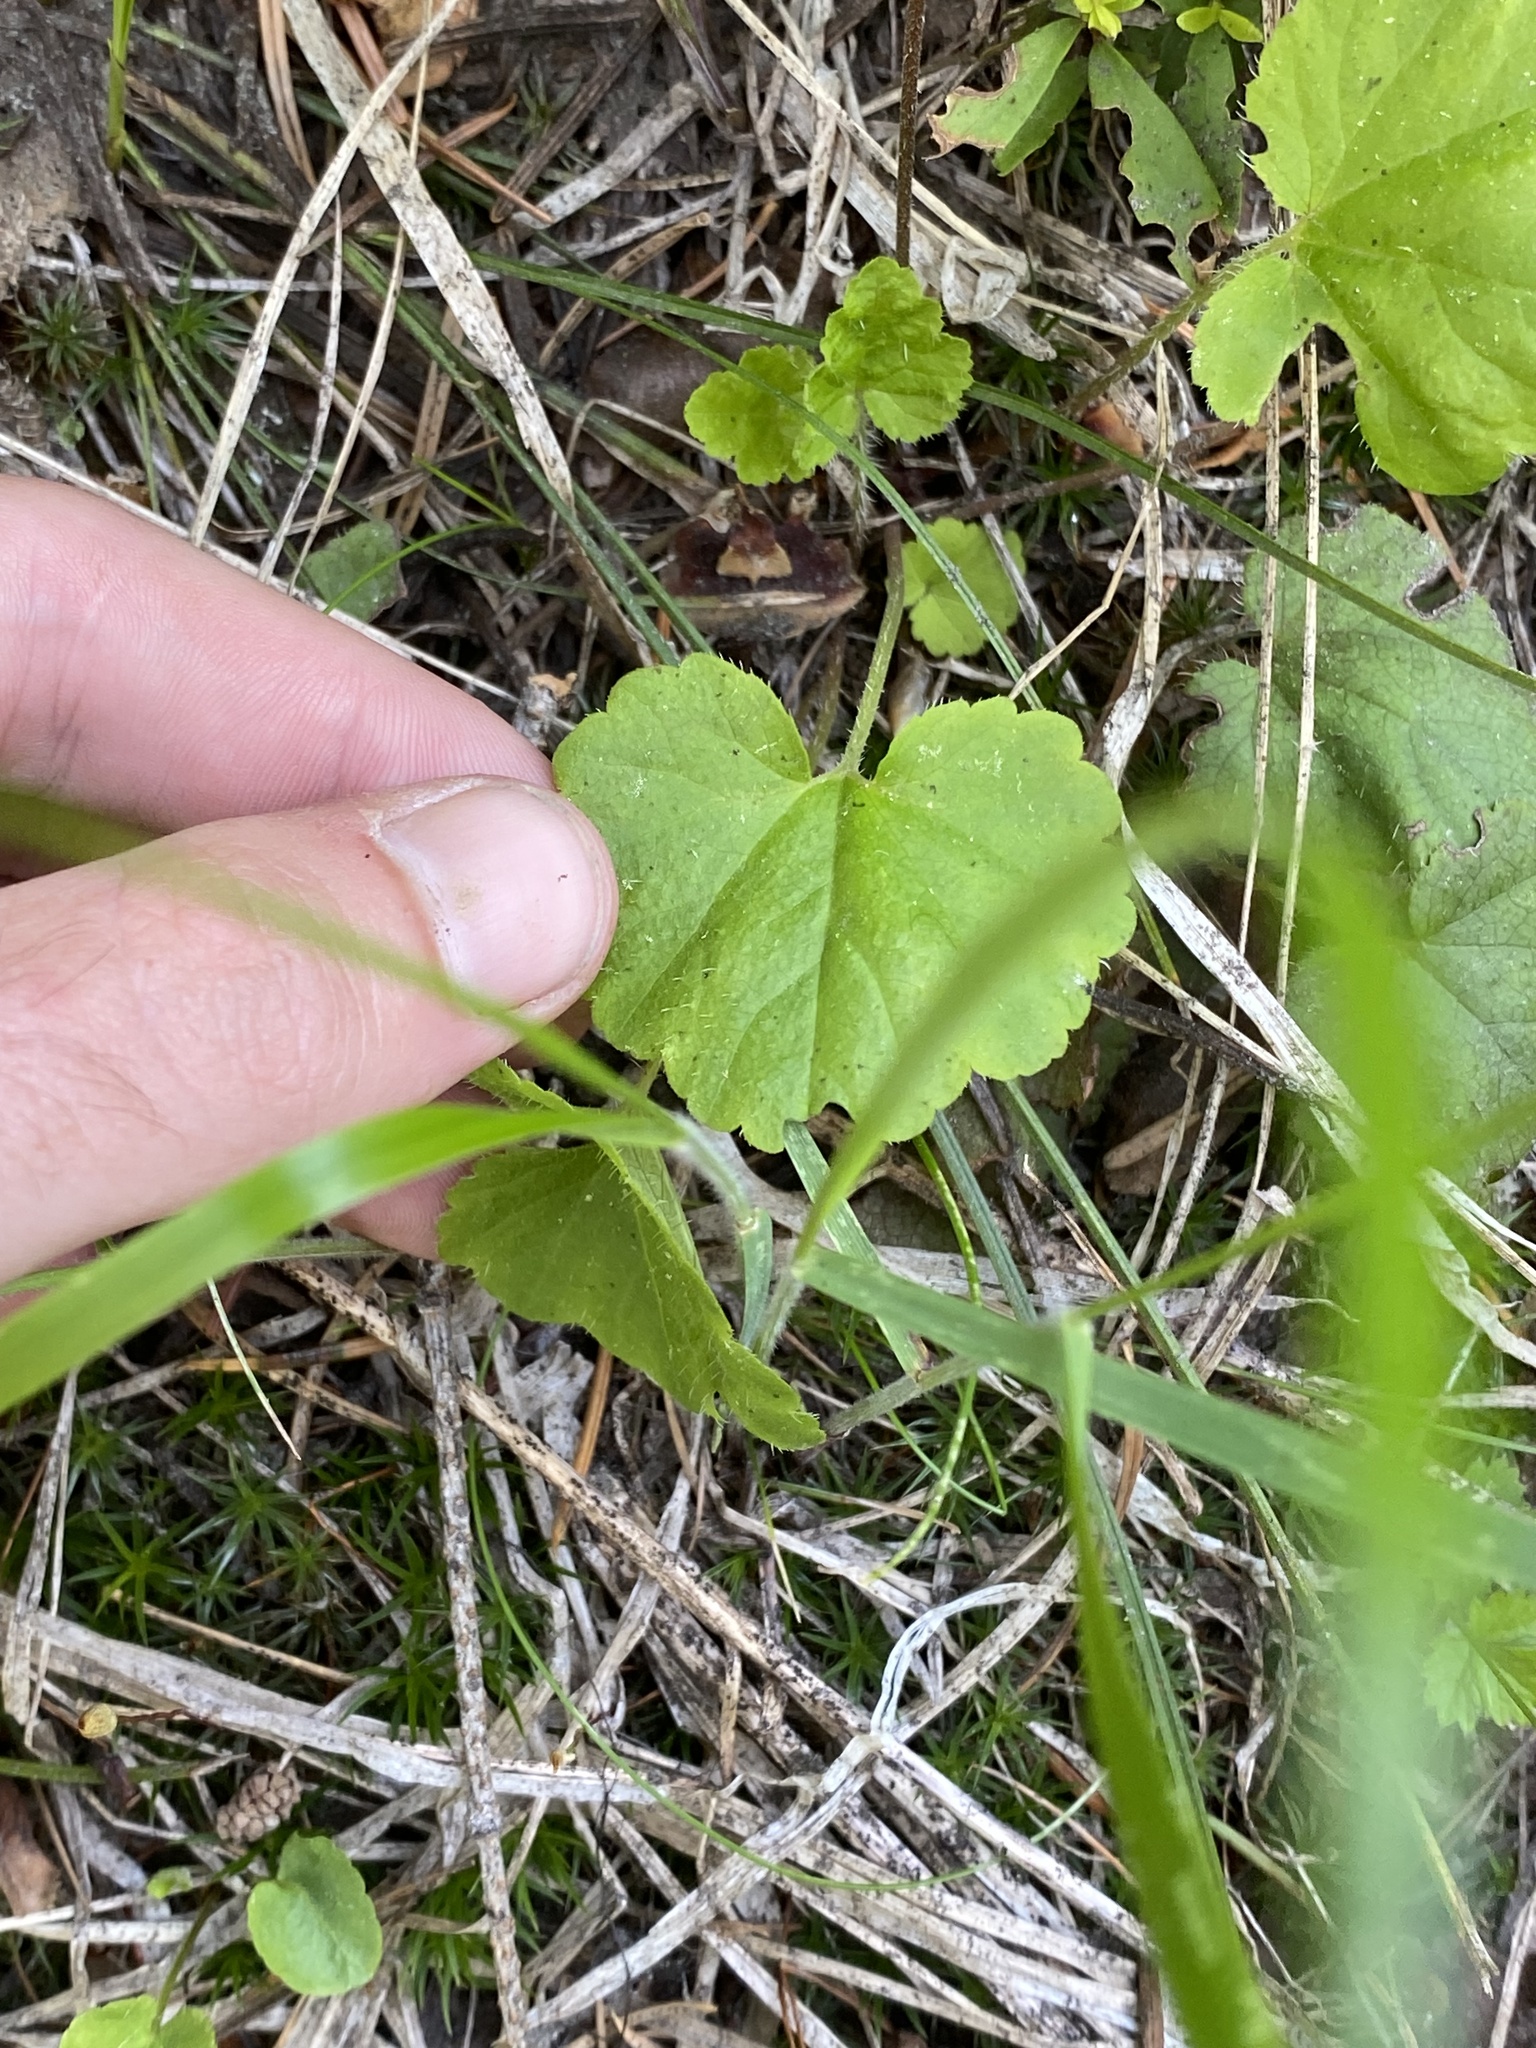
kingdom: Plantae
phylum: Tracheophyta
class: Magnoliopsida
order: Saxifragales
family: Saxifragaceae
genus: Ozomelis
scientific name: Ozomelis trifida
